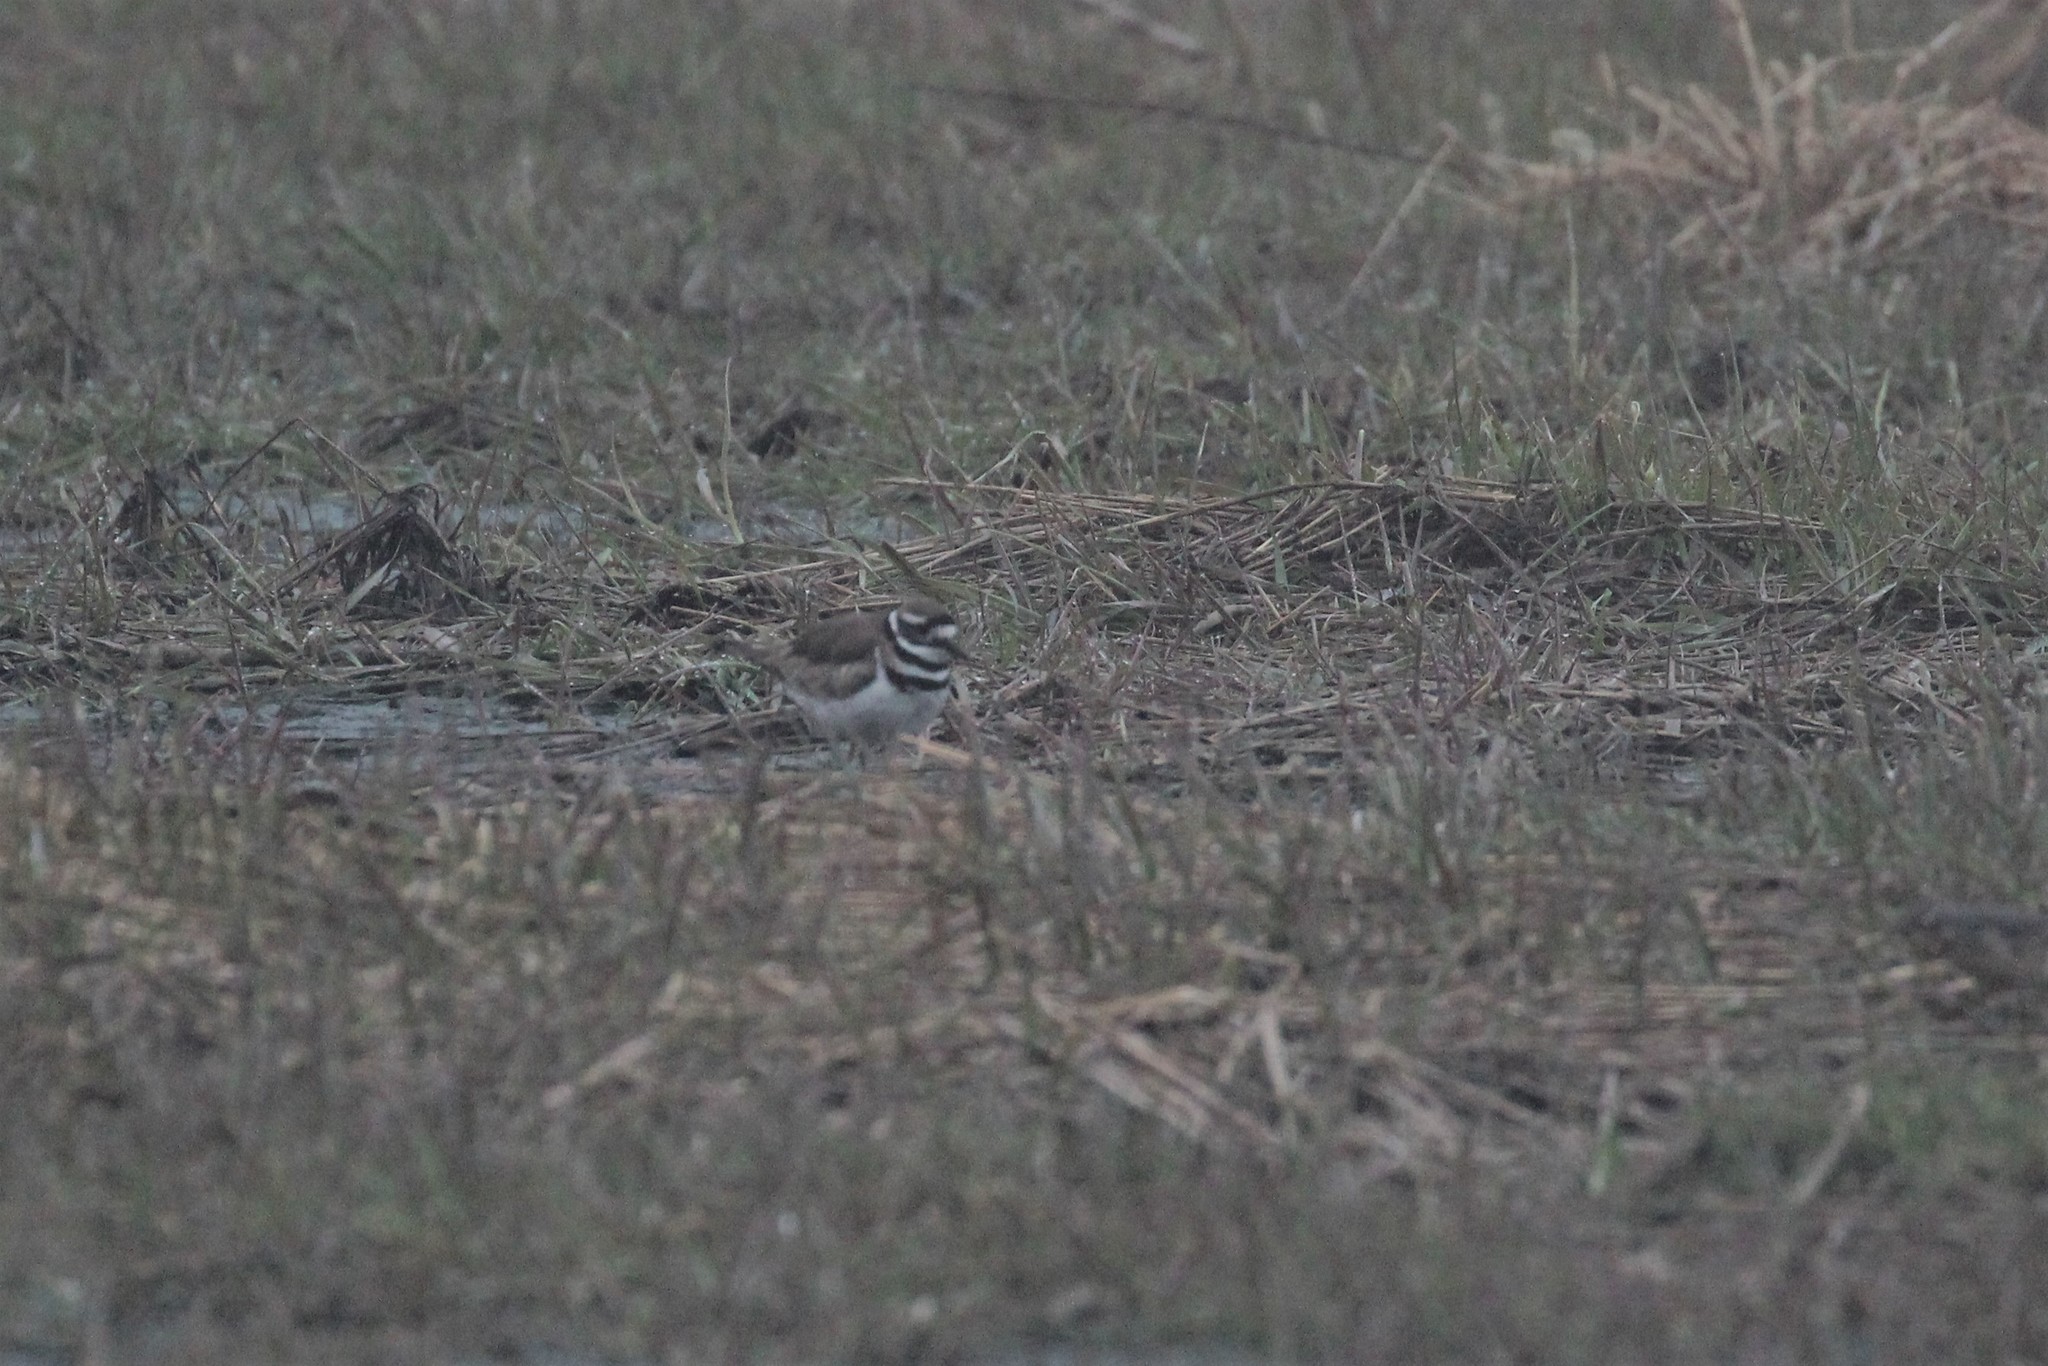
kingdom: Animalia
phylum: Chordata
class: Aves
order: Charadriiformes
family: Charadriidae
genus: Charadrius
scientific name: Charadrius vociferus
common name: Killdeer
